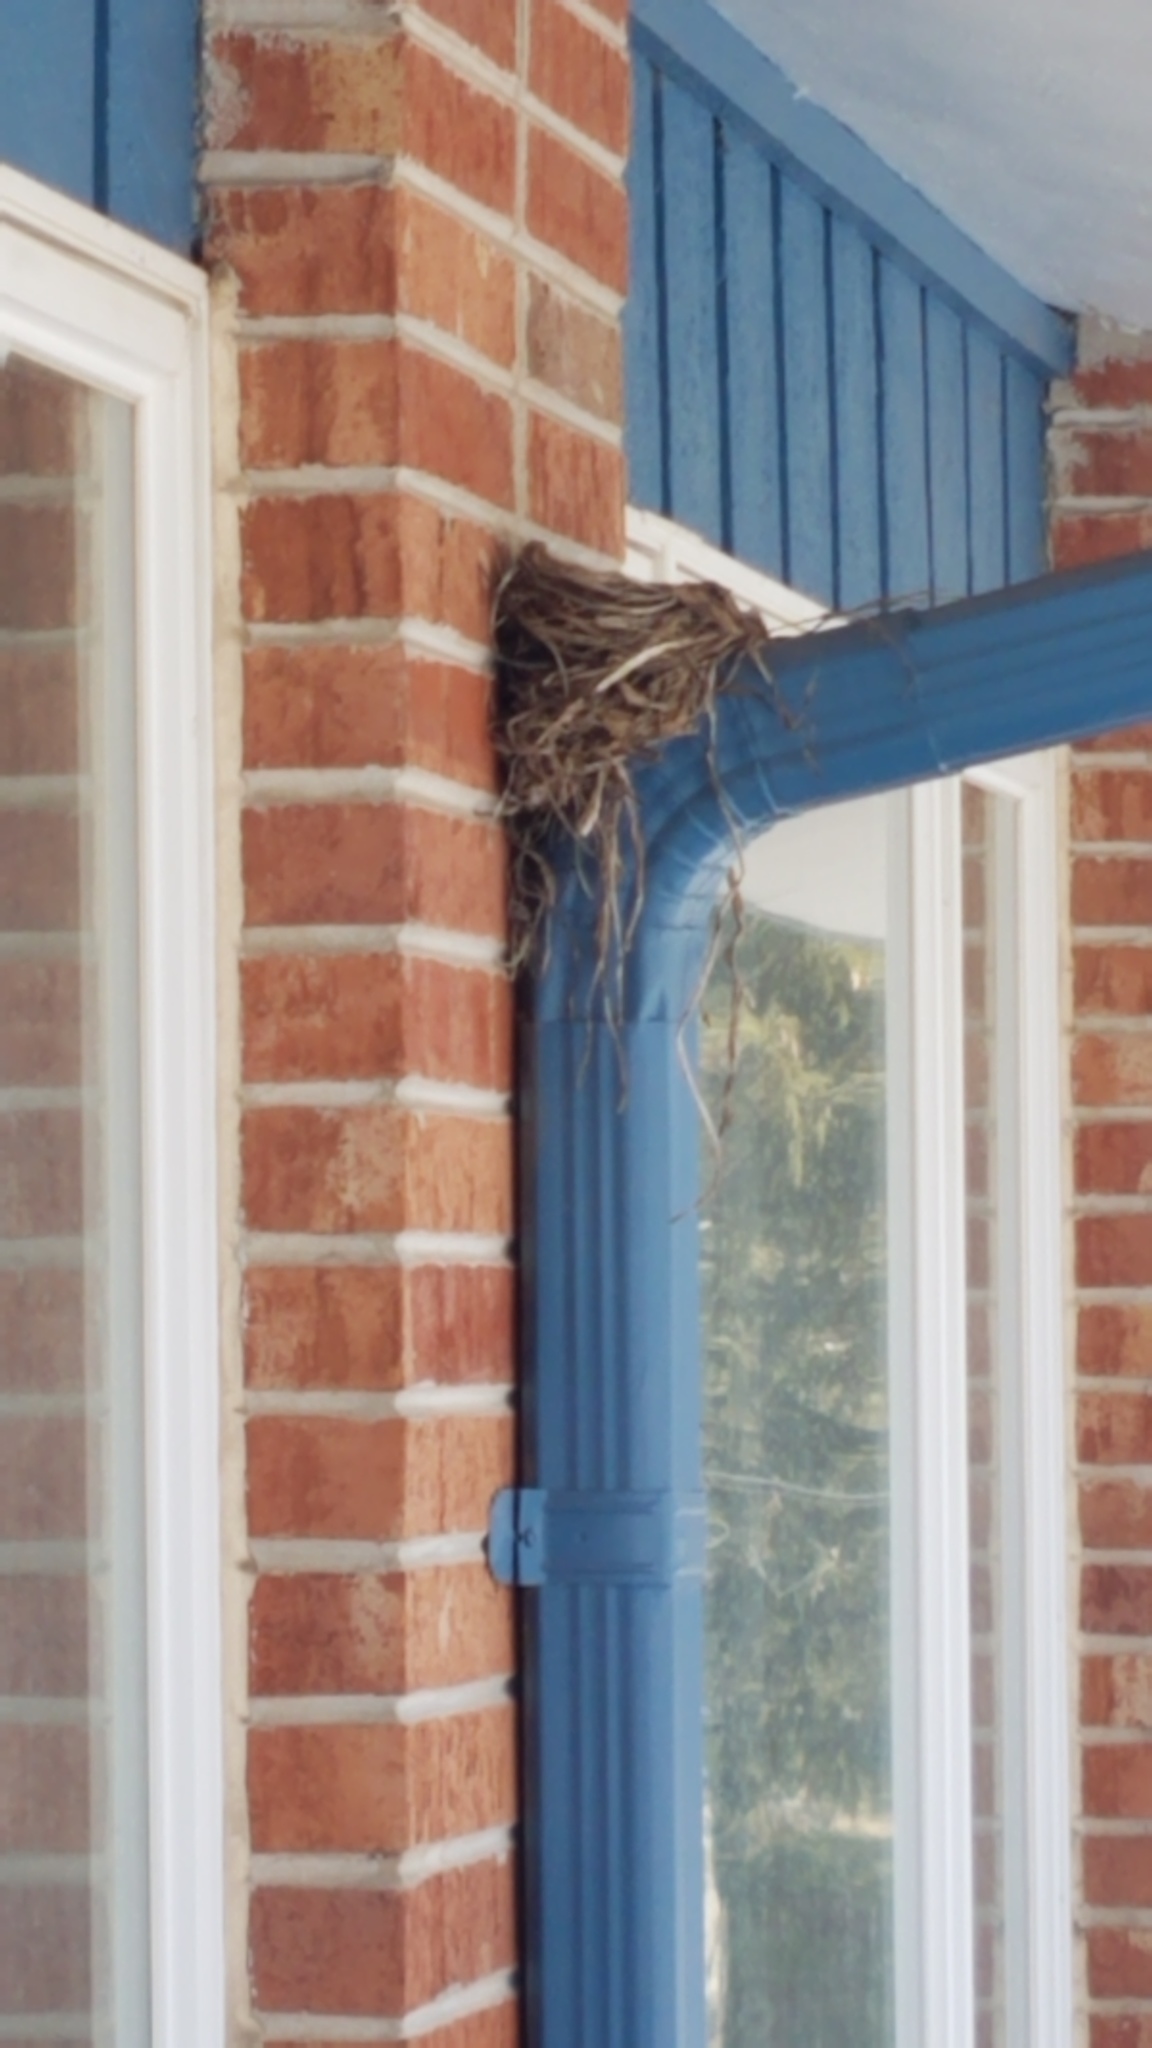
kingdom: Animalia
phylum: Chordata
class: Aves
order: Passeriformes
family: Turdidae
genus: Turdus
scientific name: Turdus migratorius
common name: American robin
